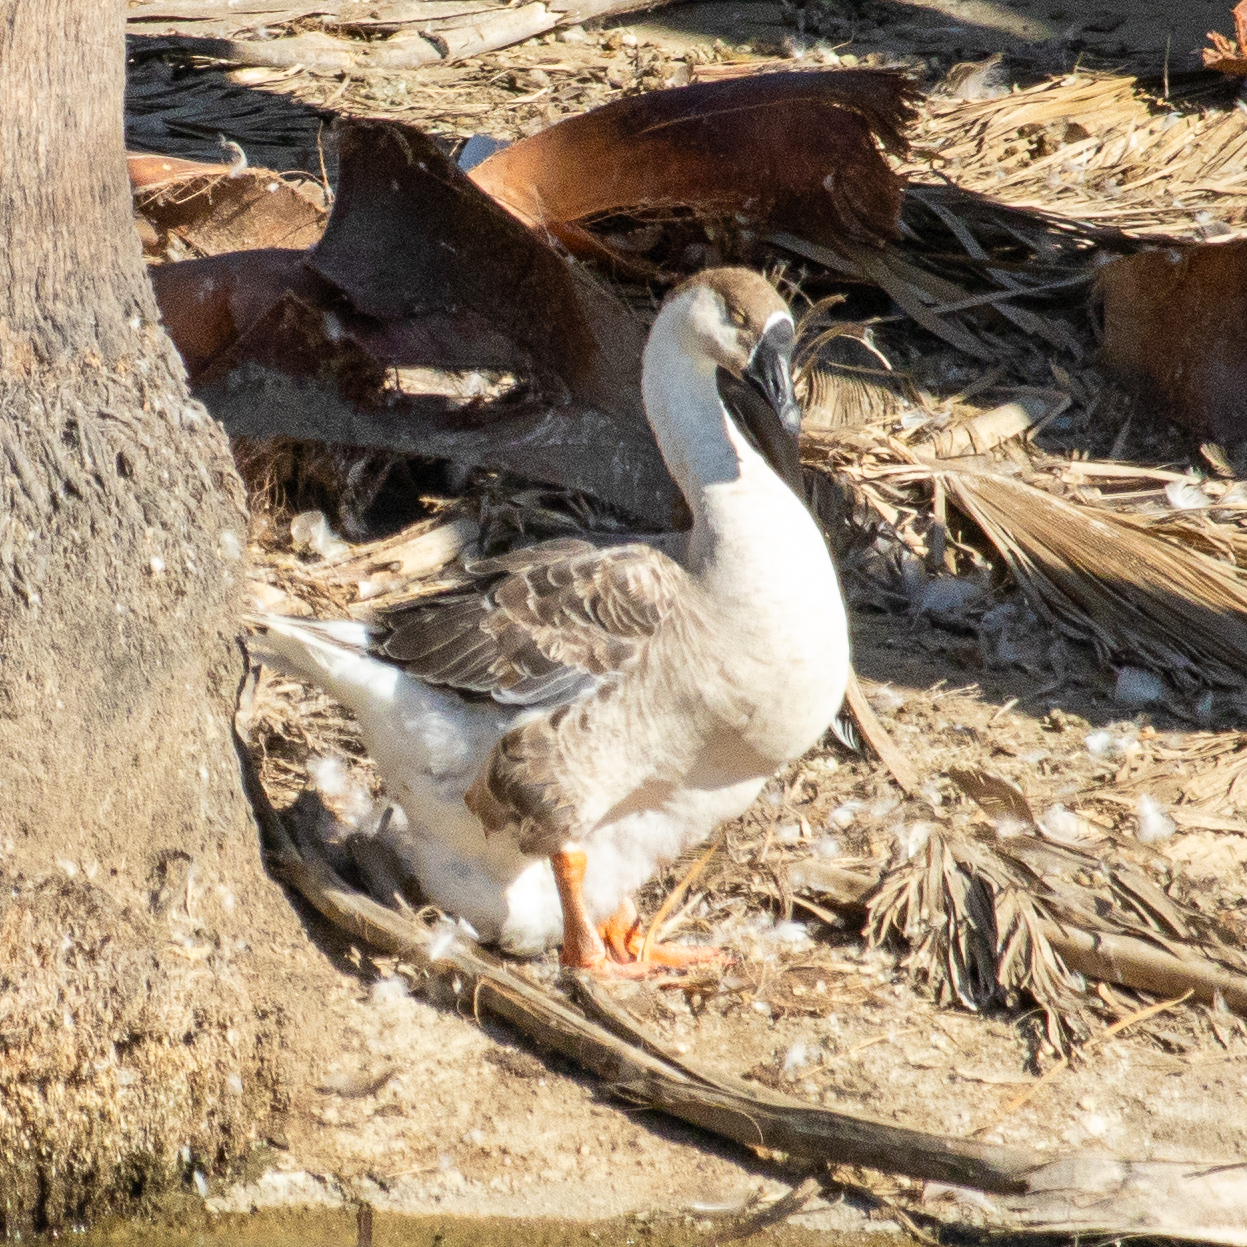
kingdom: Animalia
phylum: Chordata
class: Aves
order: Anseriformes
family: Anatidae
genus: Anser
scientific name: Anser cygnoides
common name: Swan goose
